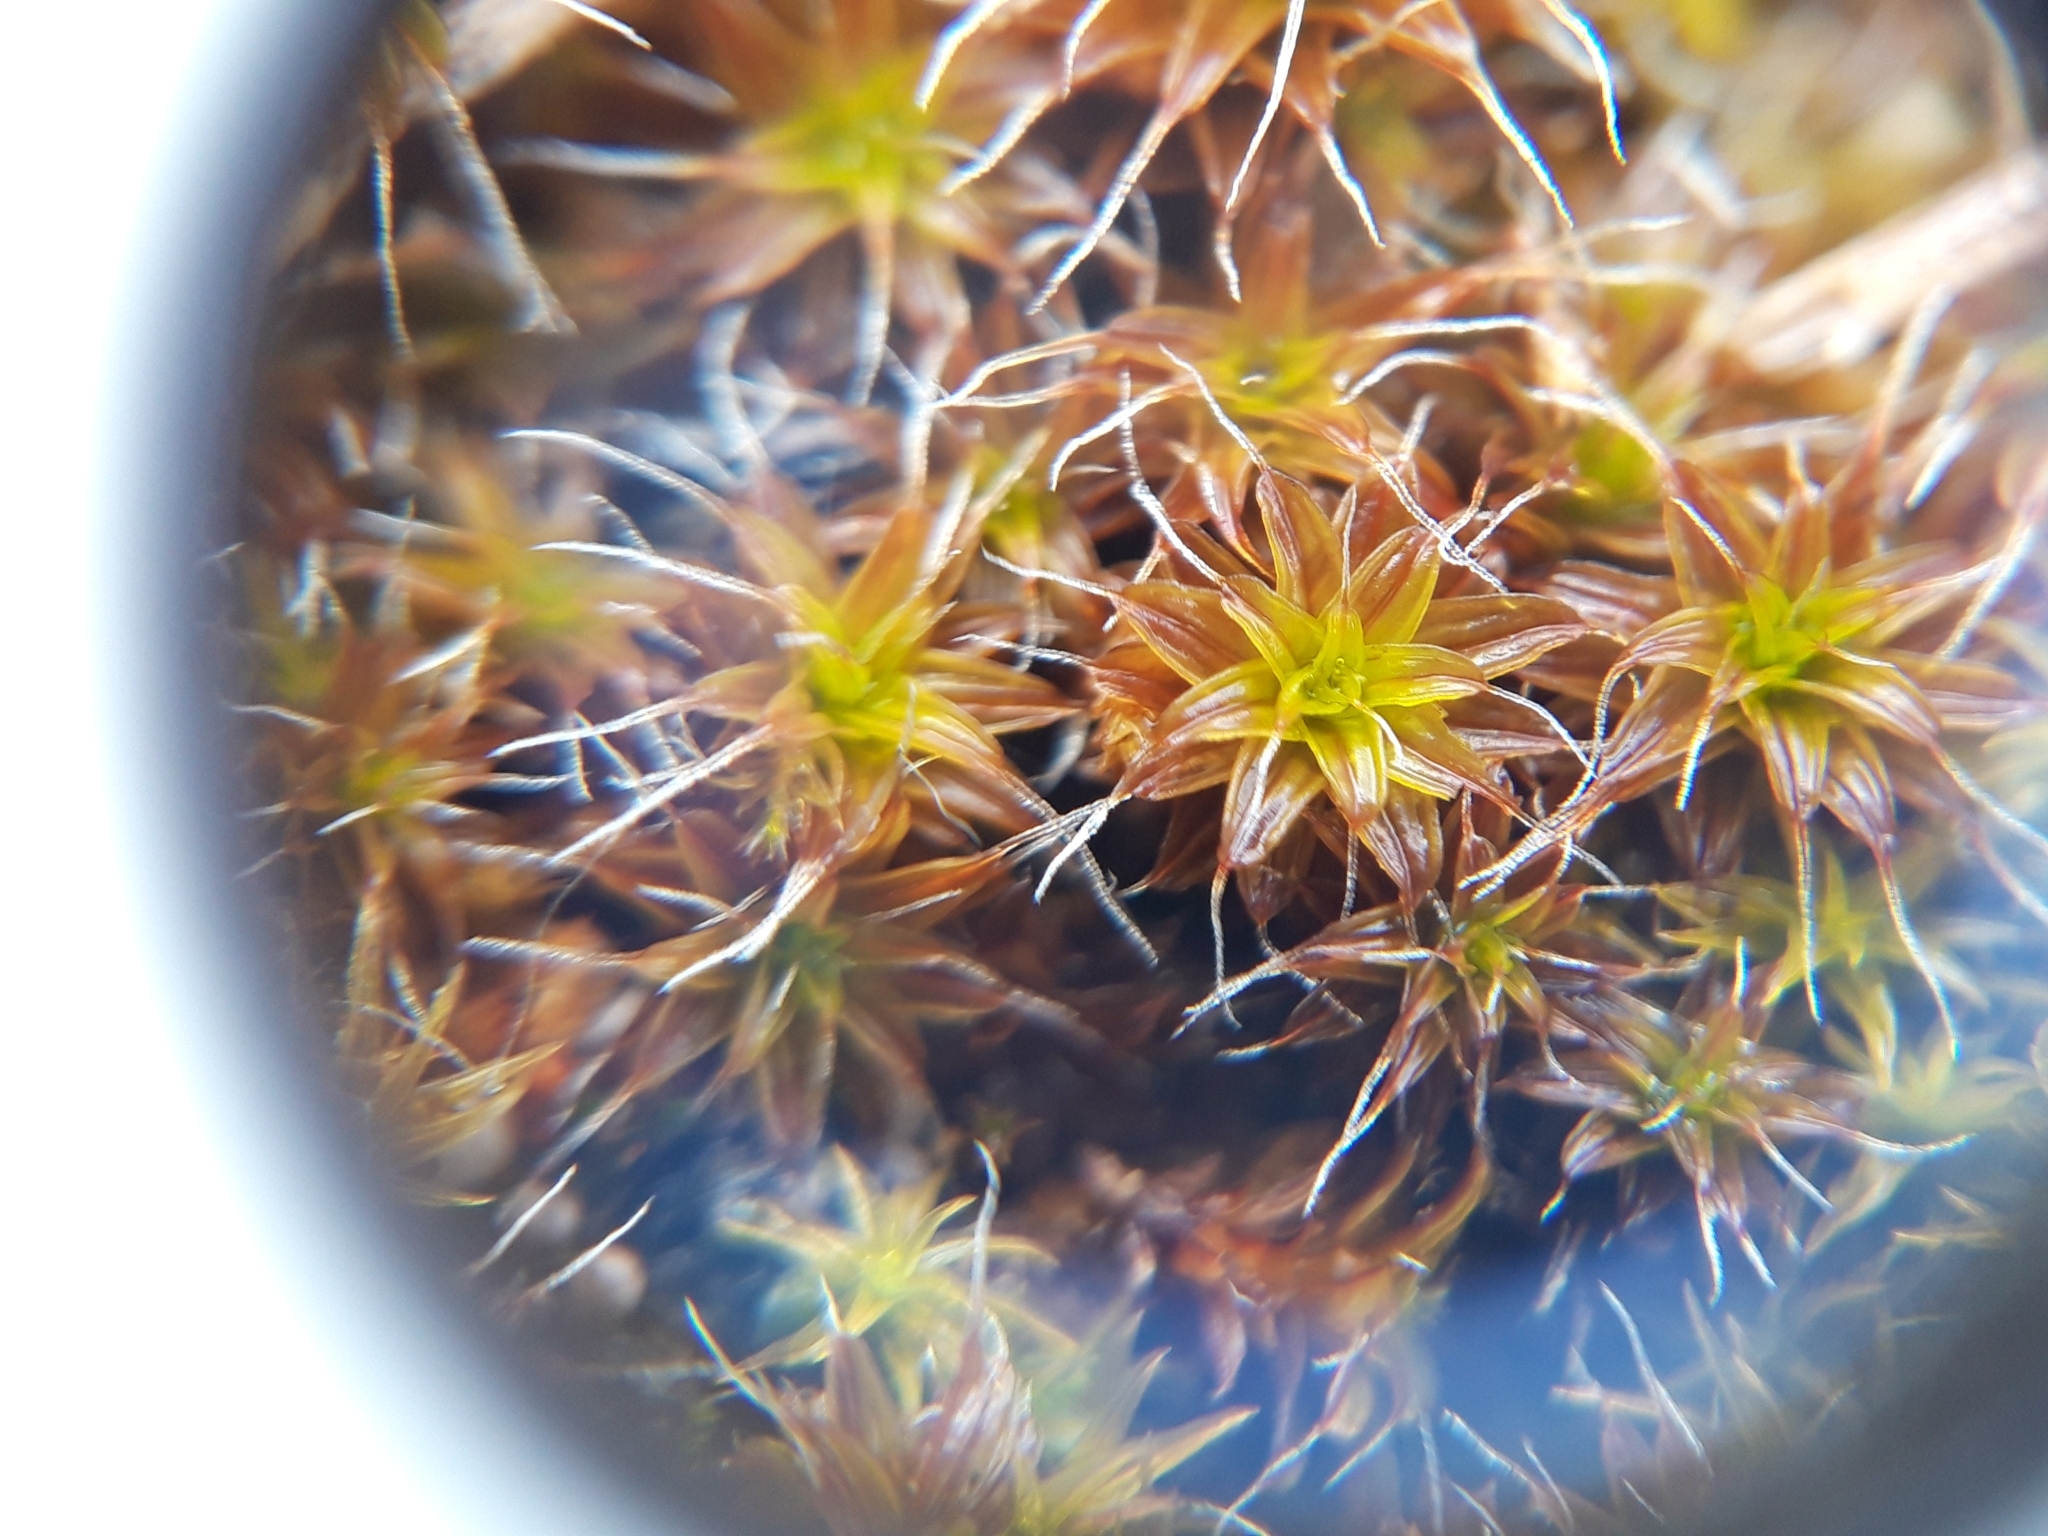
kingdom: Plantae
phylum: Bryophyta
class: Bryopsida
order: Pottiales
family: Pottiaceae
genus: Syntrichia
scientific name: Syntrichia ruralis
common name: Sidewalk screw moss
